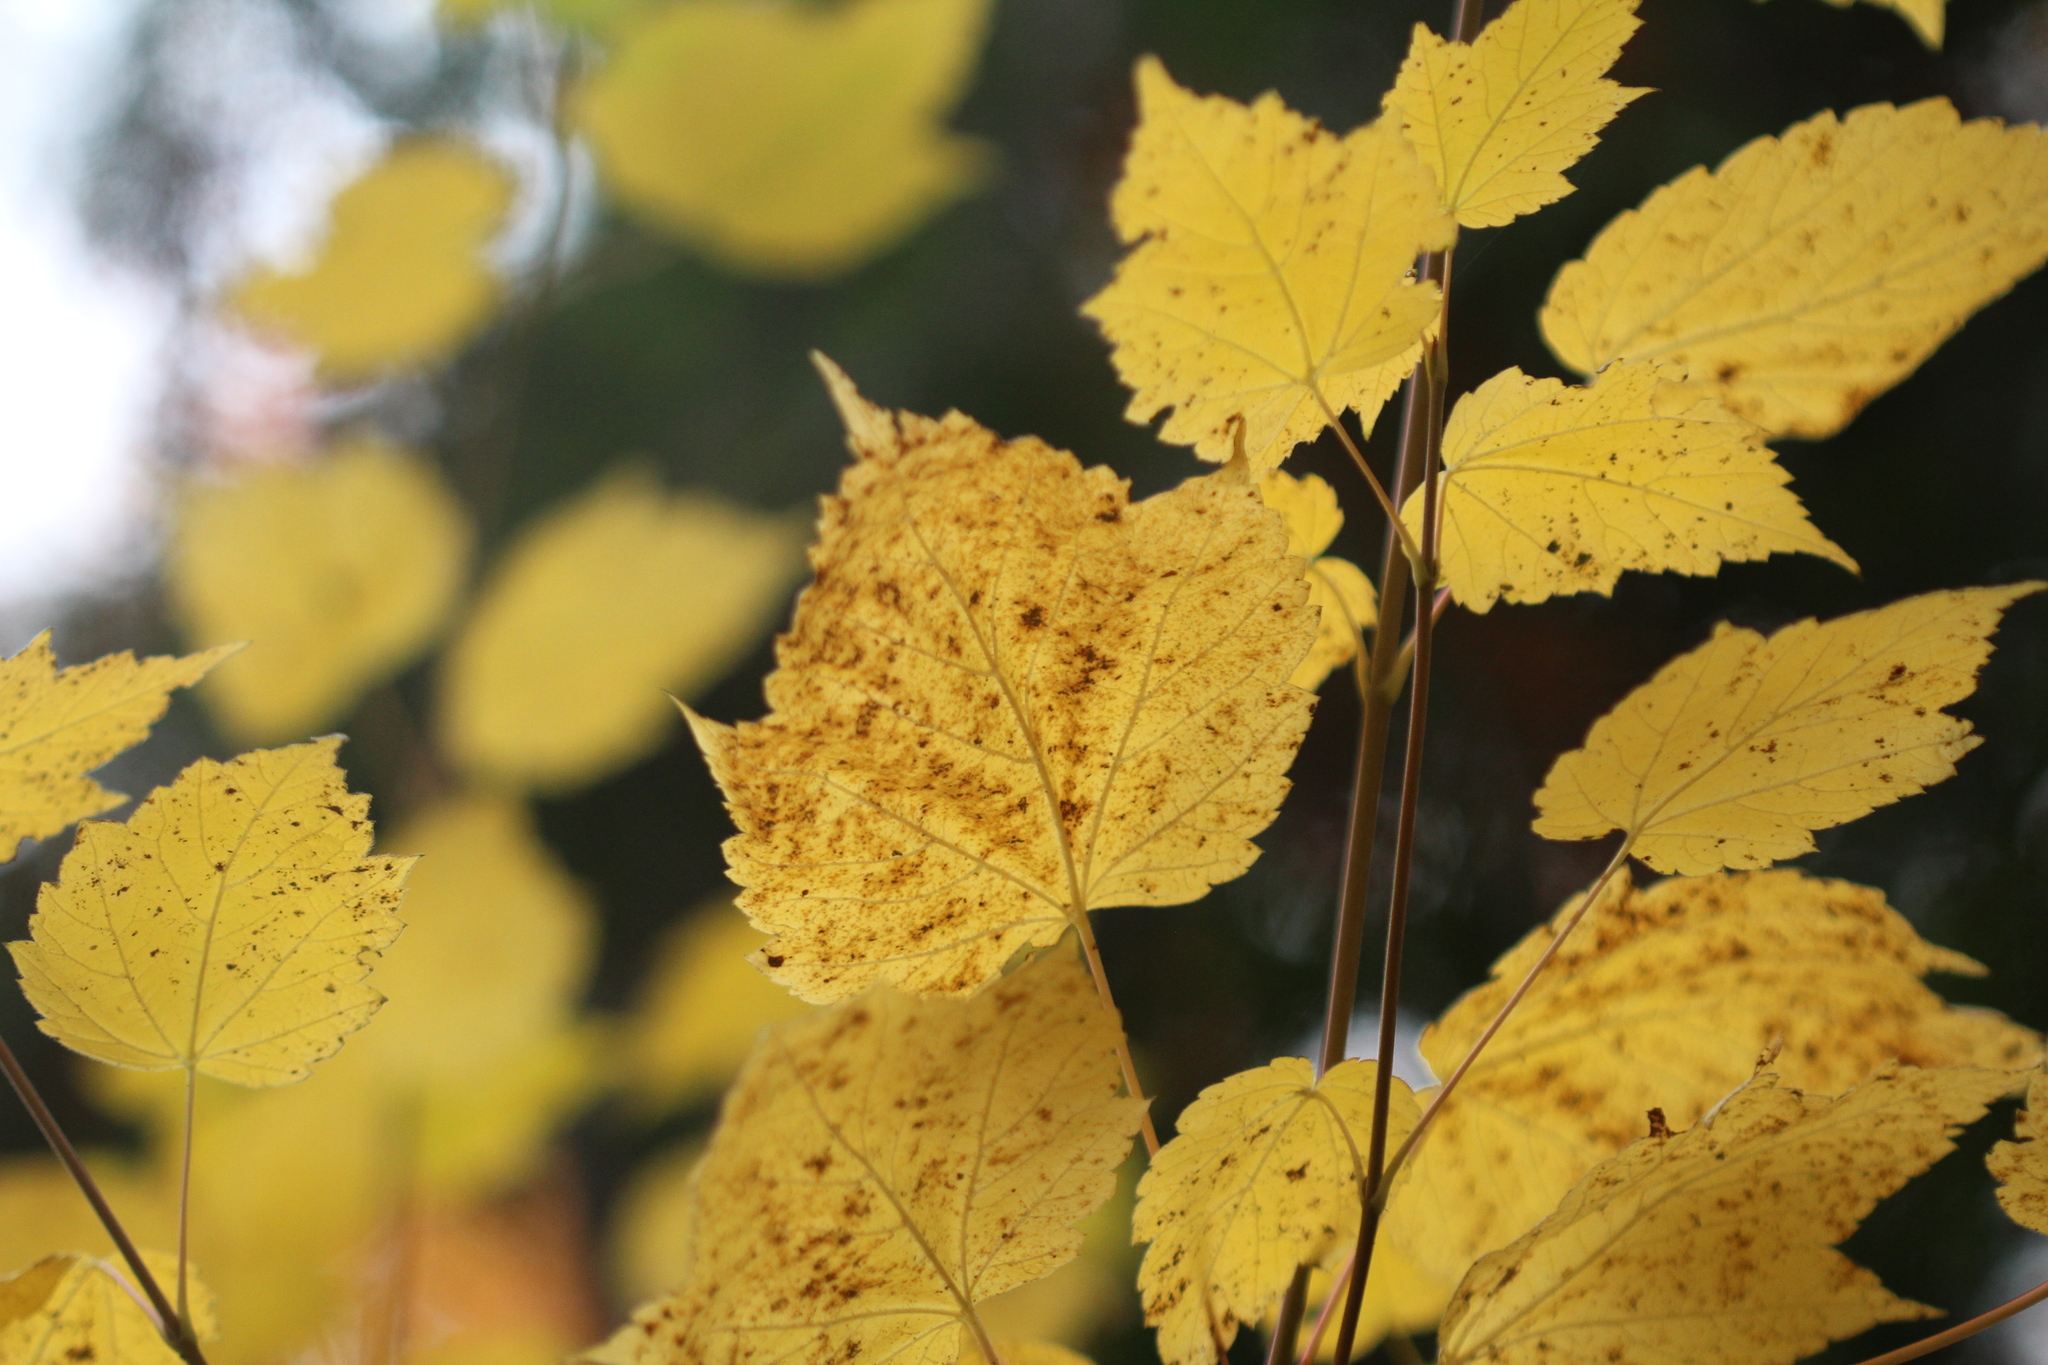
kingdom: Plantae
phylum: Tracheophyta
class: Magnoliopsida
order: Sapindales
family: Sapindaceae
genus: Acer
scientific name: Acer spicatum
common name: Mountain maple
